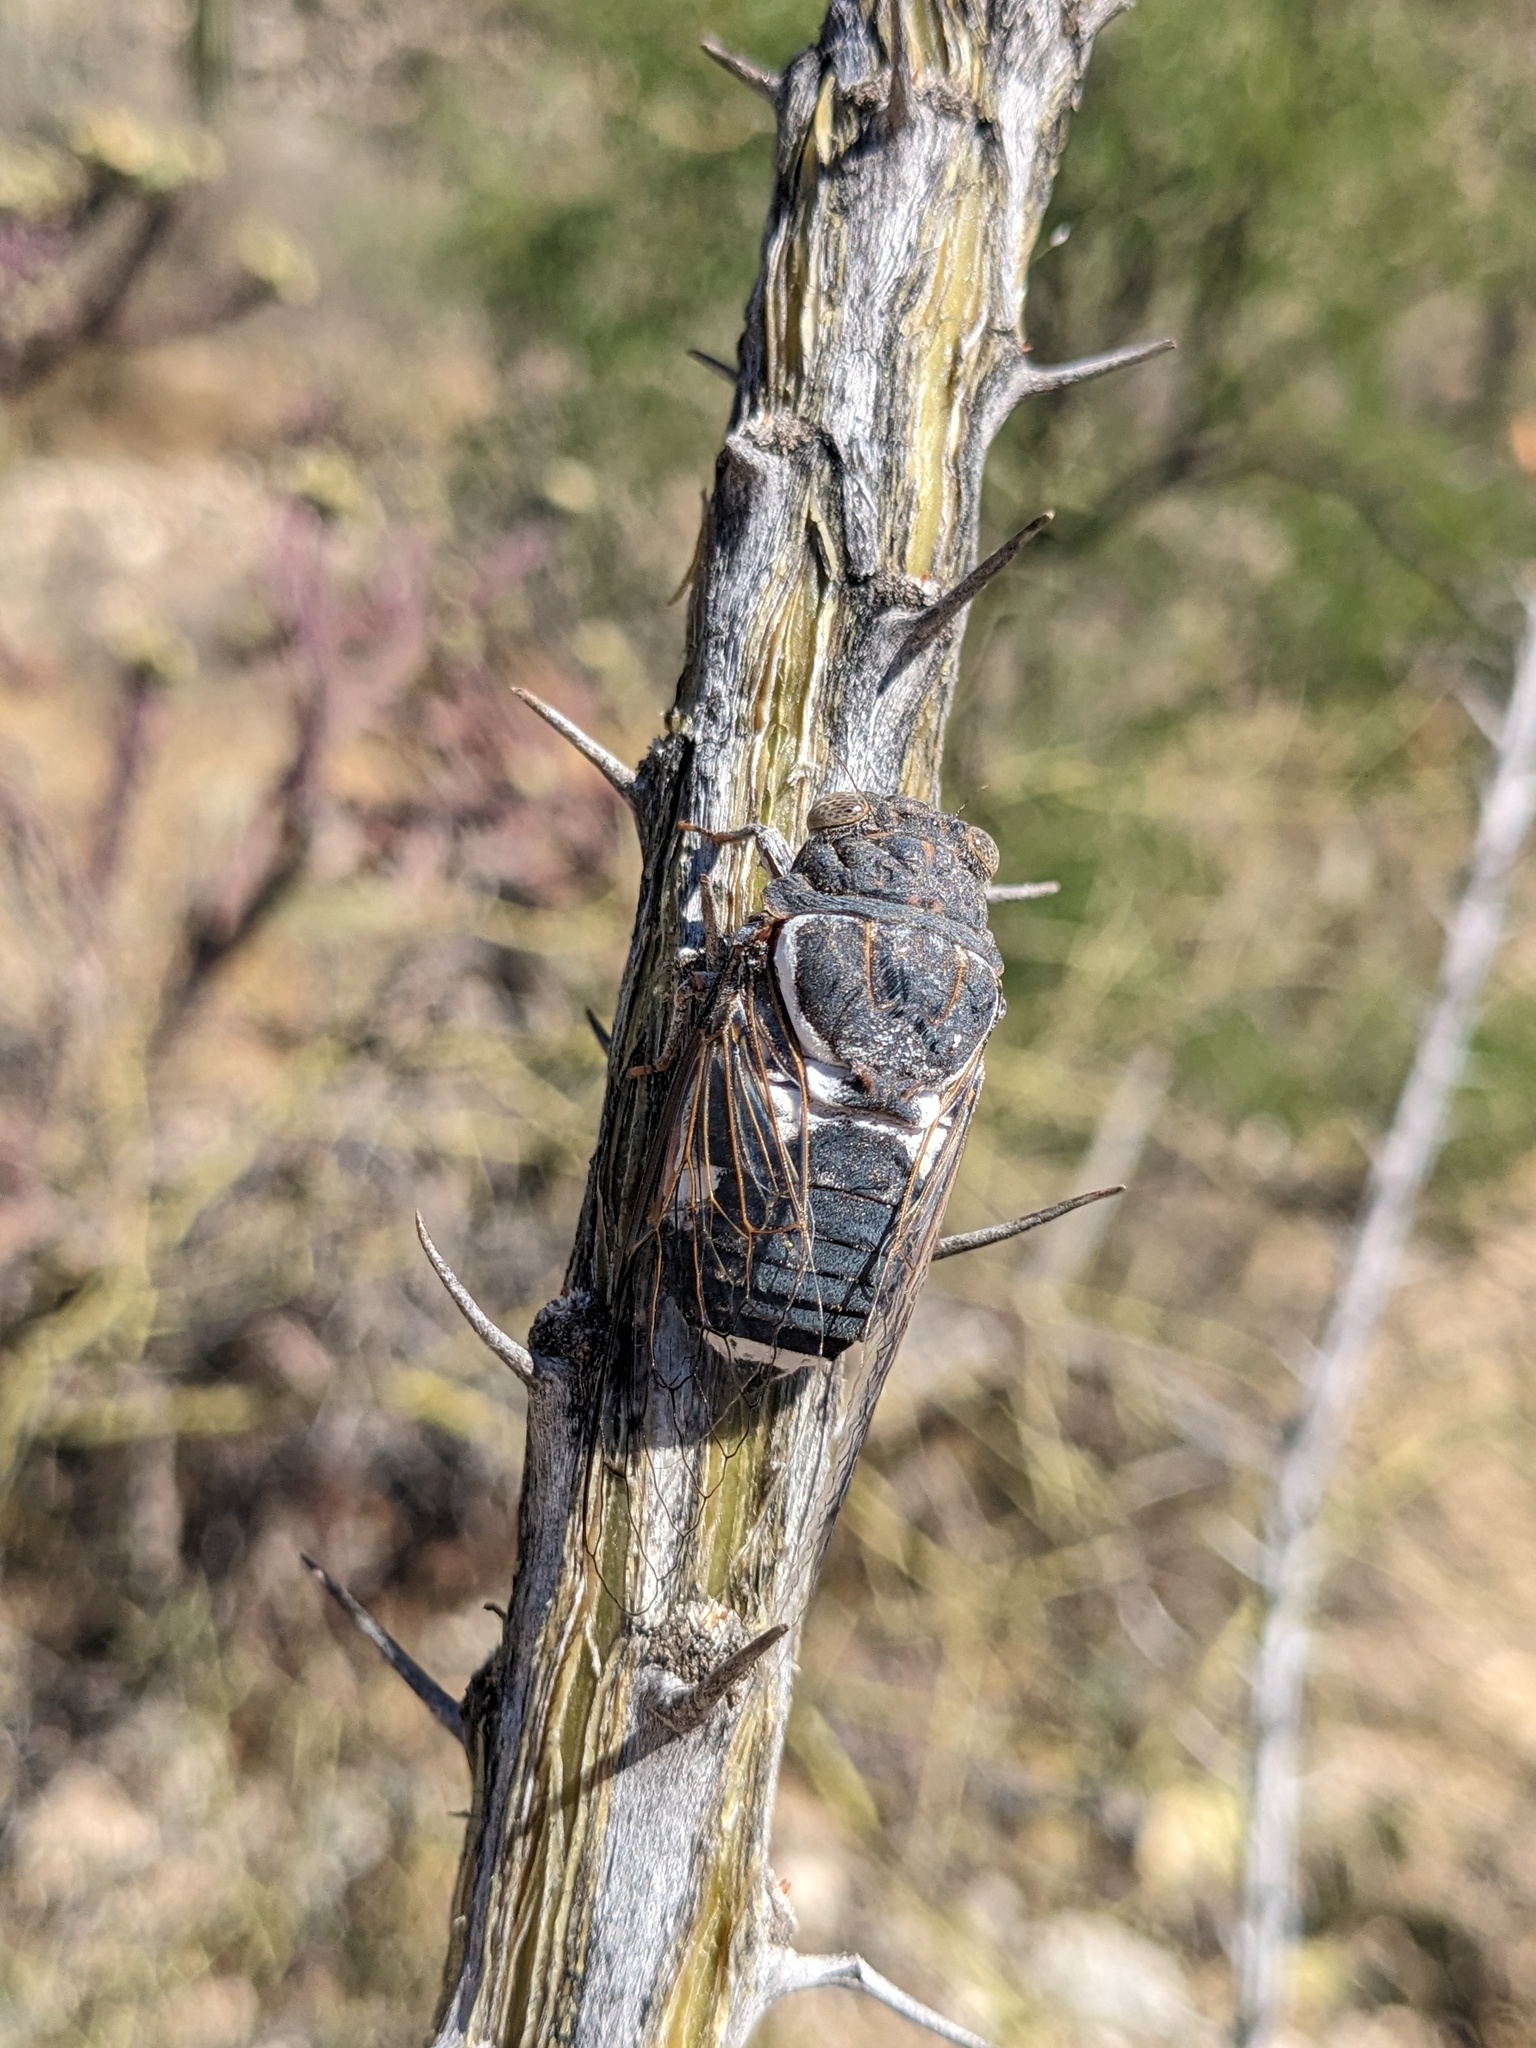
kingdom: Animalia
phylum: Arthropoda
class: Insecta
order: Hemiptera
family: Cicadidae
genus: Cacama
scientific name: Cacama moorei
